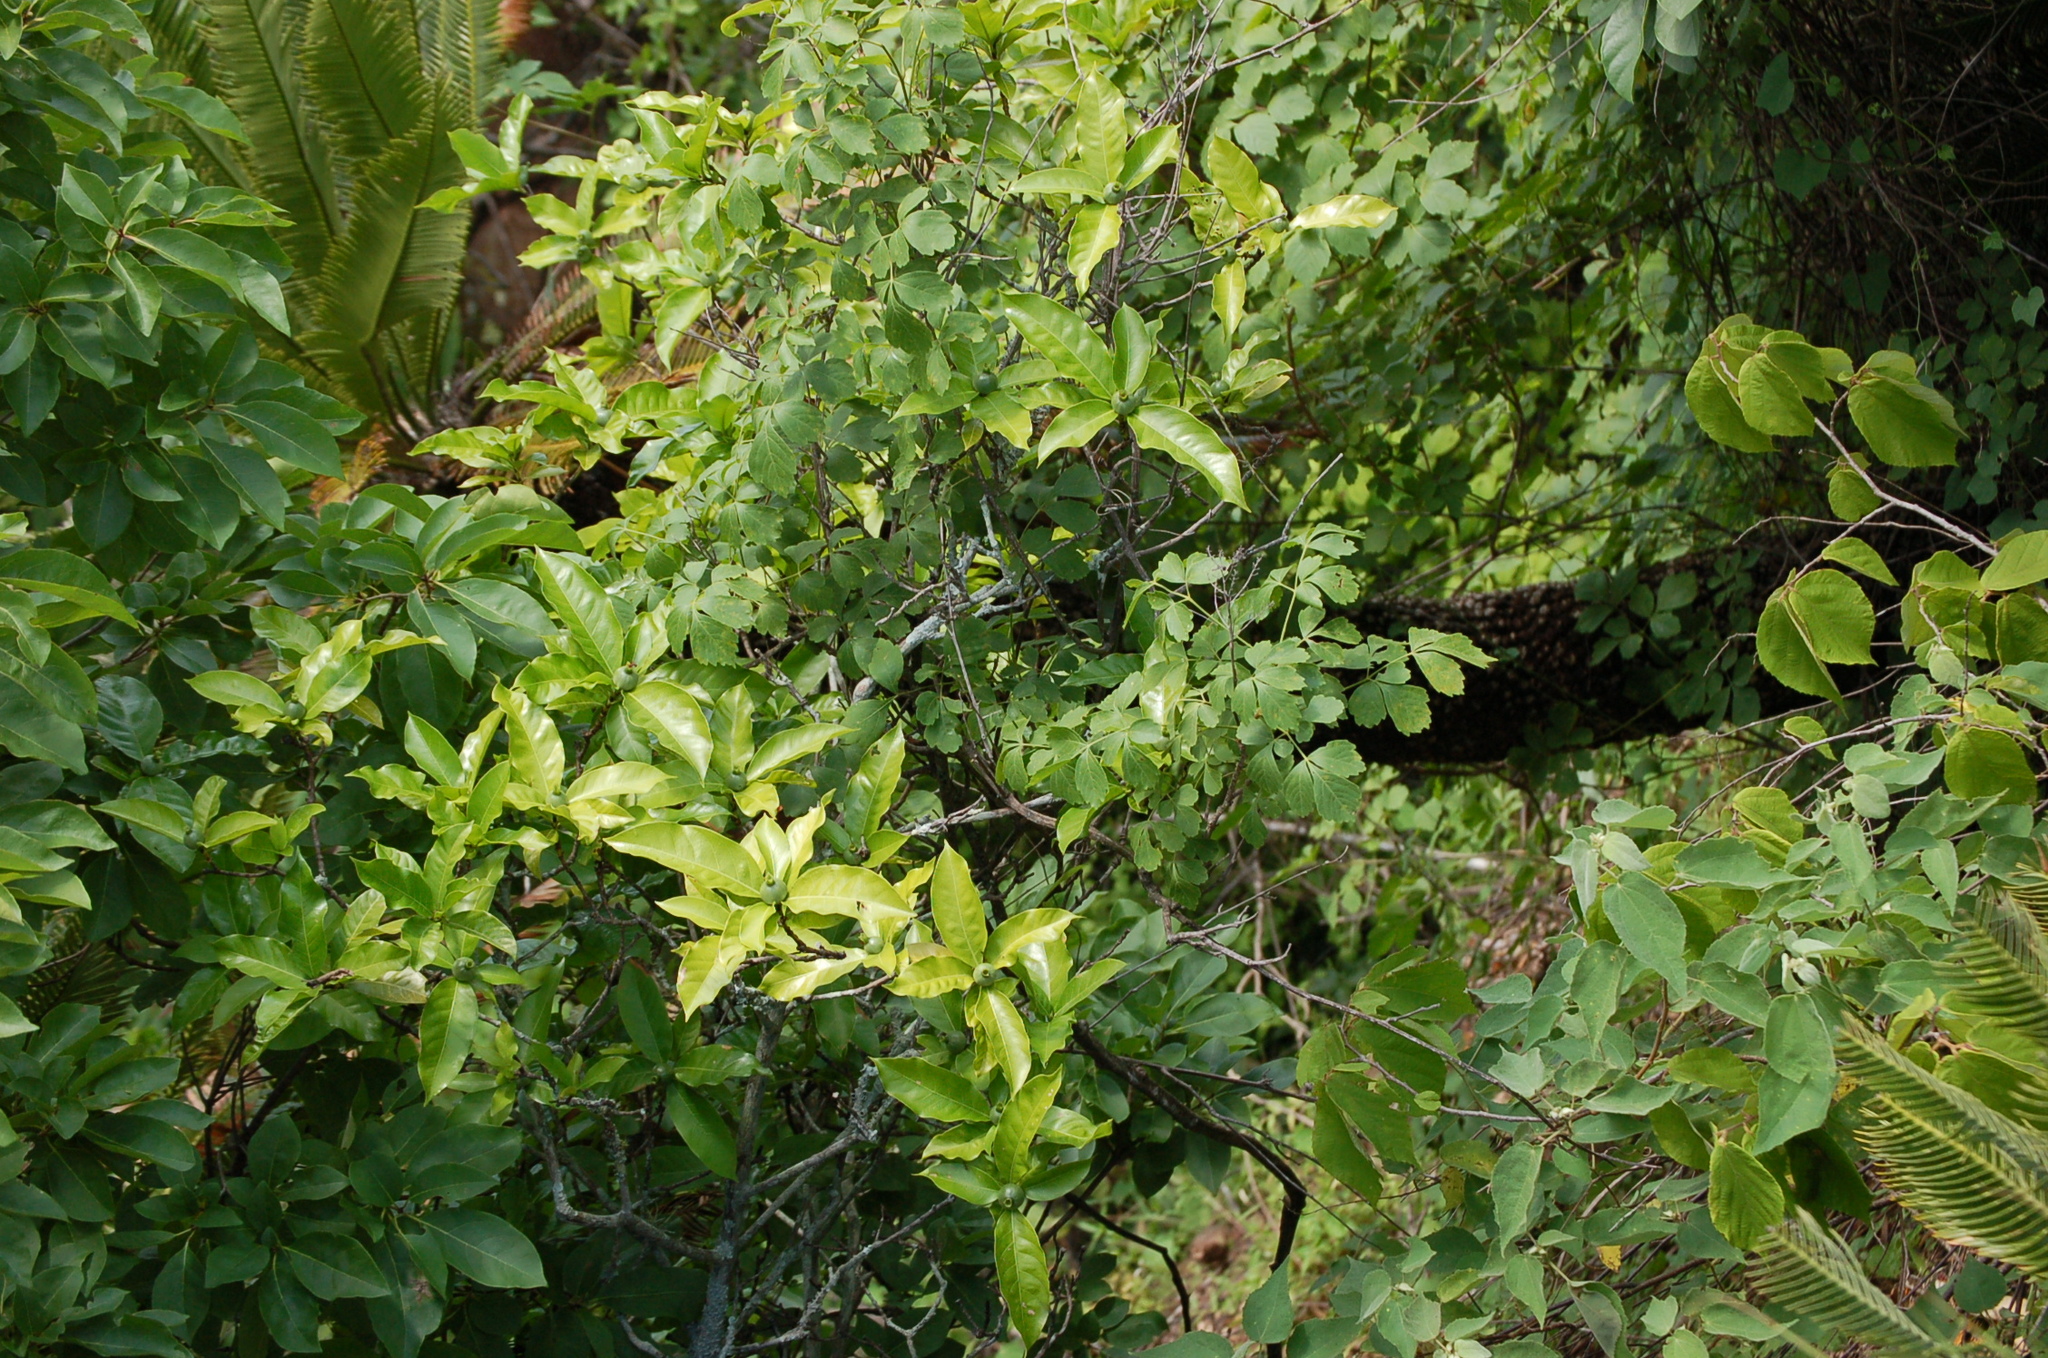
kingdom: Plantae
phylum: Tracheophyta
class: Magnoliopsida
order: Gentianales
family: Rubiaceae
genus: Alibertia
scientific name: Alibertia edulis
